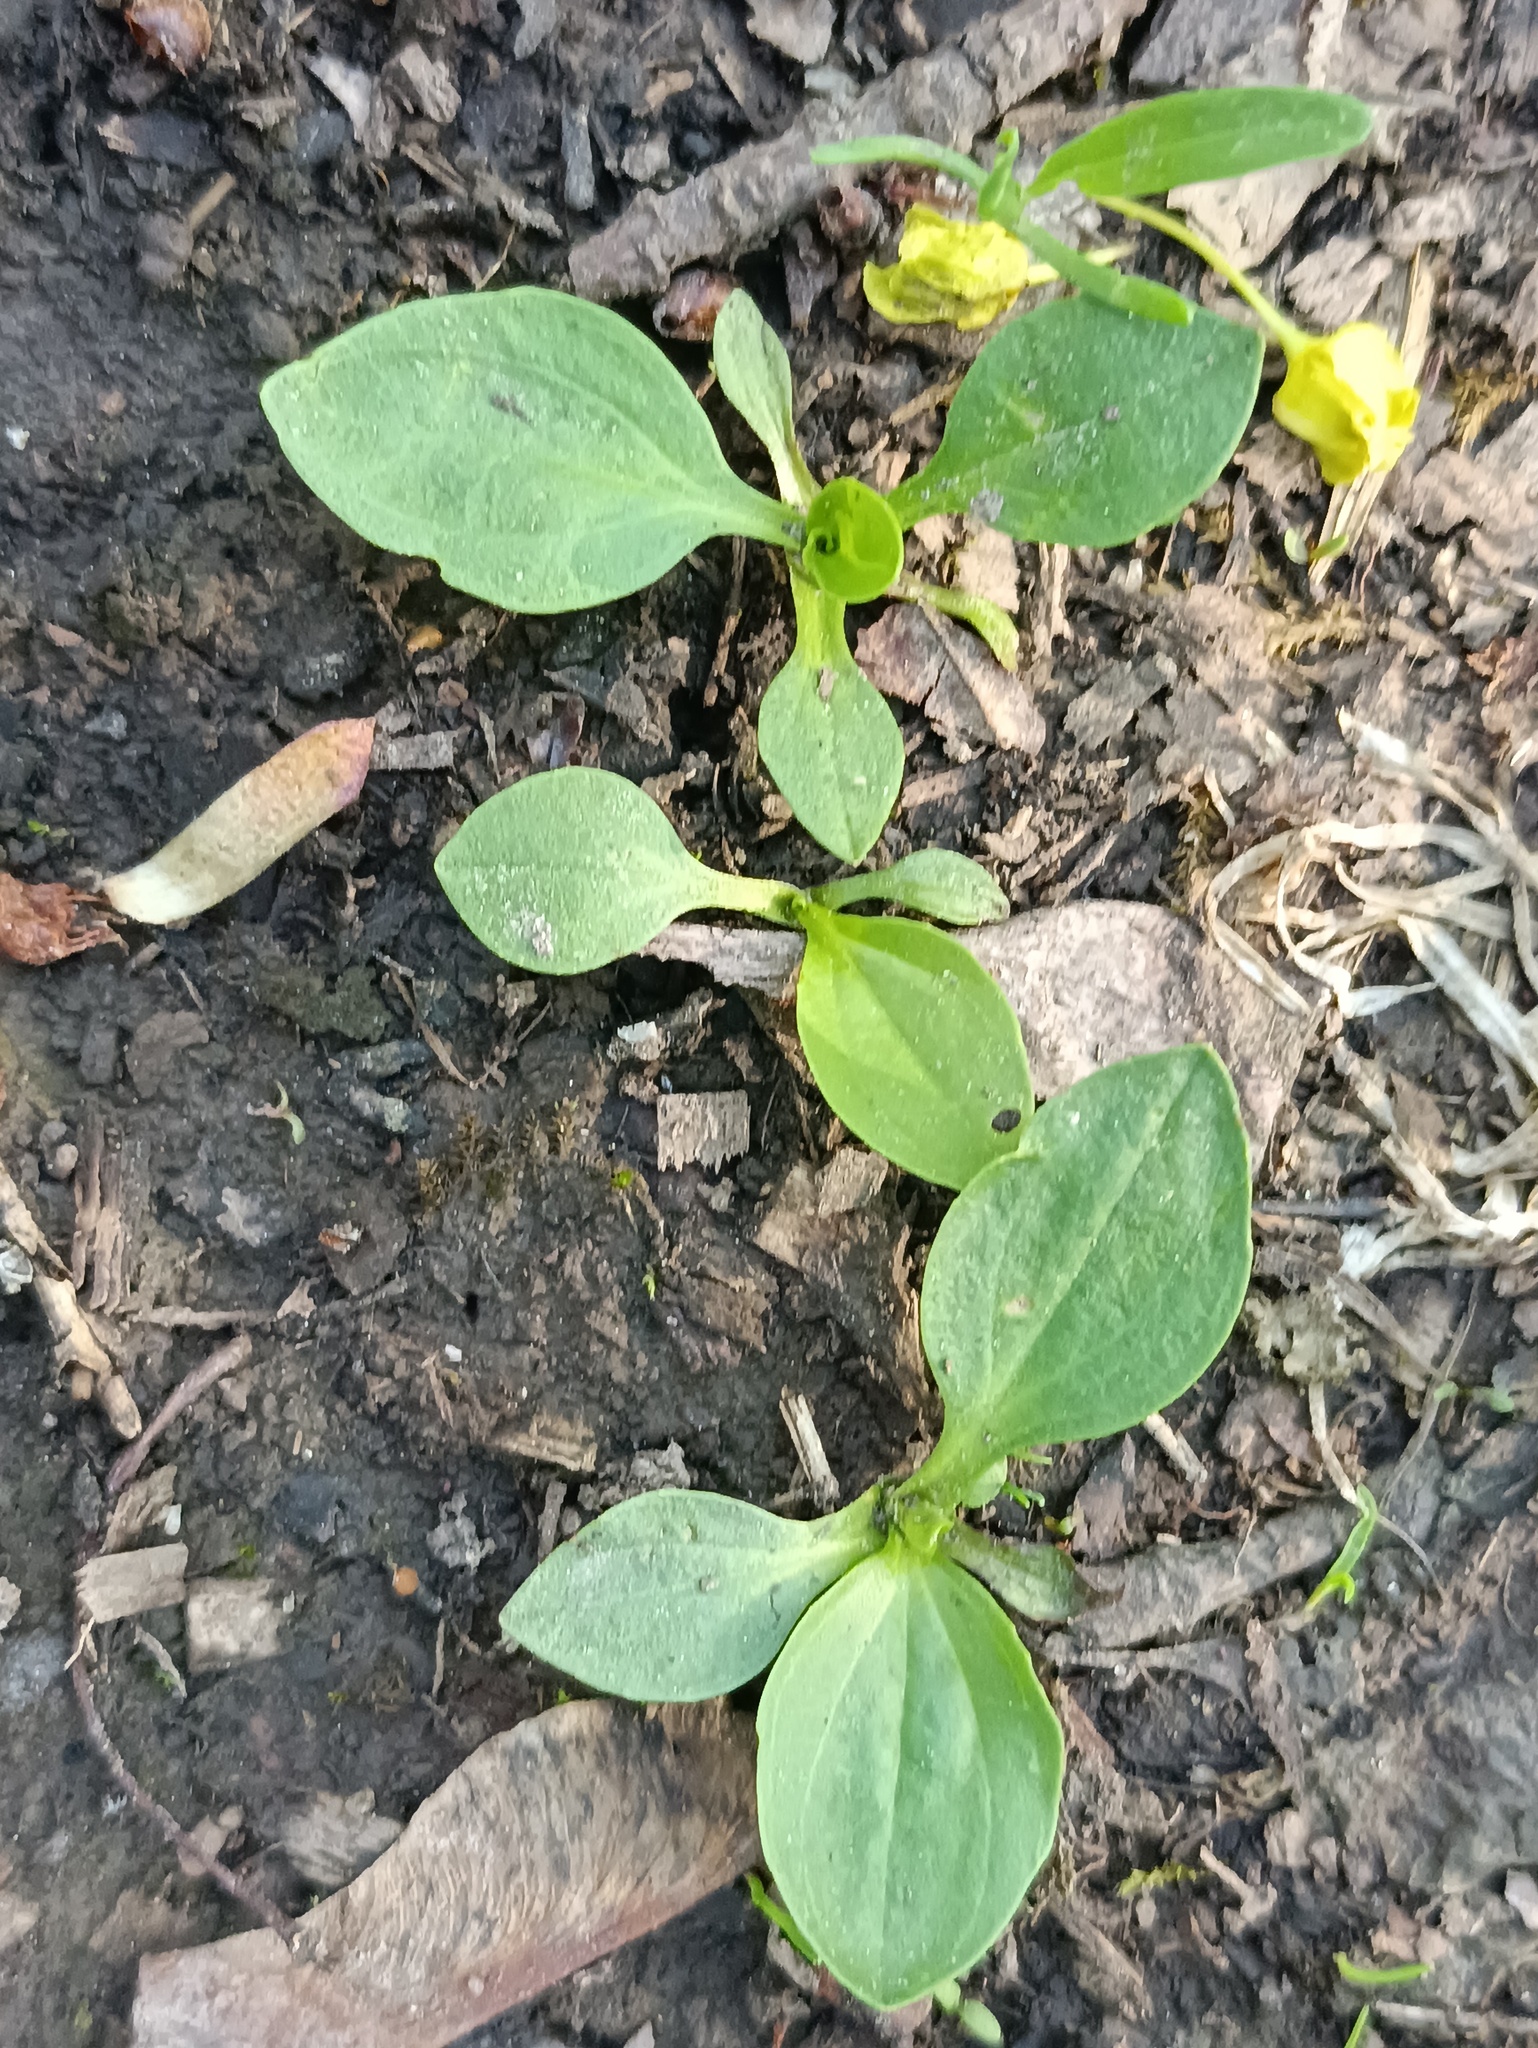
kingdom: Plantae
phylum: Tracheophyta
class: Magnoliopsida
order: Lamiales
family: Plantaginaceae
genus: Plantago
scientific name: Plantago major
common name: Common plantain
